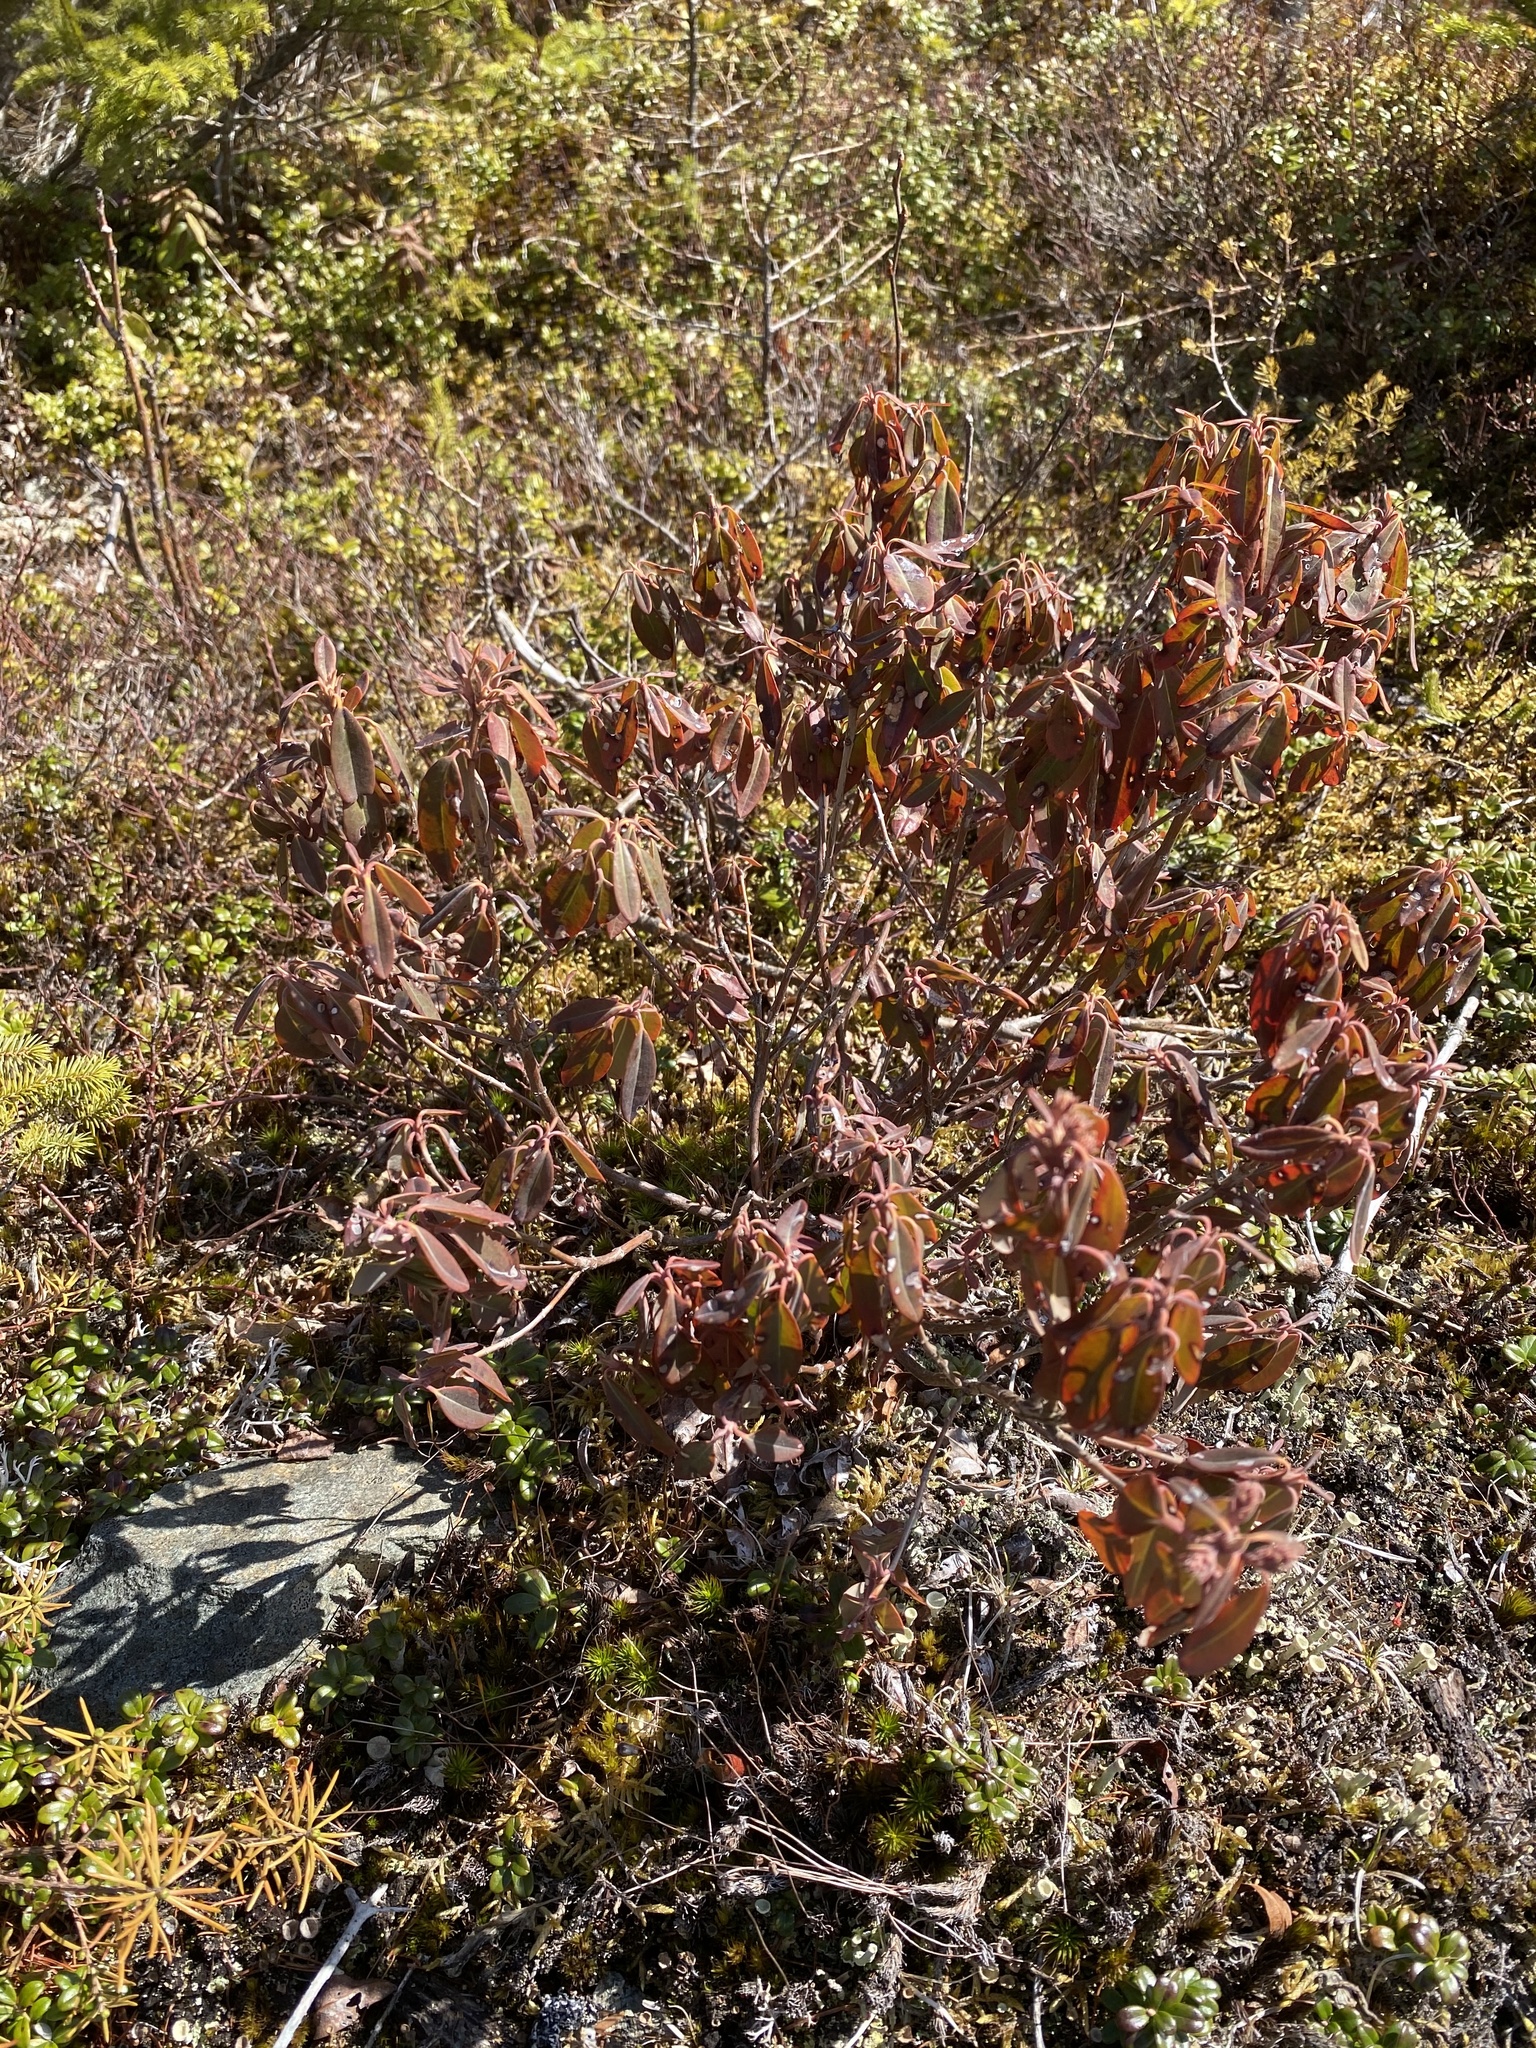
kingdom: Plantae
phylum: Tracheophyta
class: Magnoliopsida
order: Ericales
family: Ericaceae
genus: Kalmia
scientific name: Kalmia angustifolia
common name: Sheep-laurel
